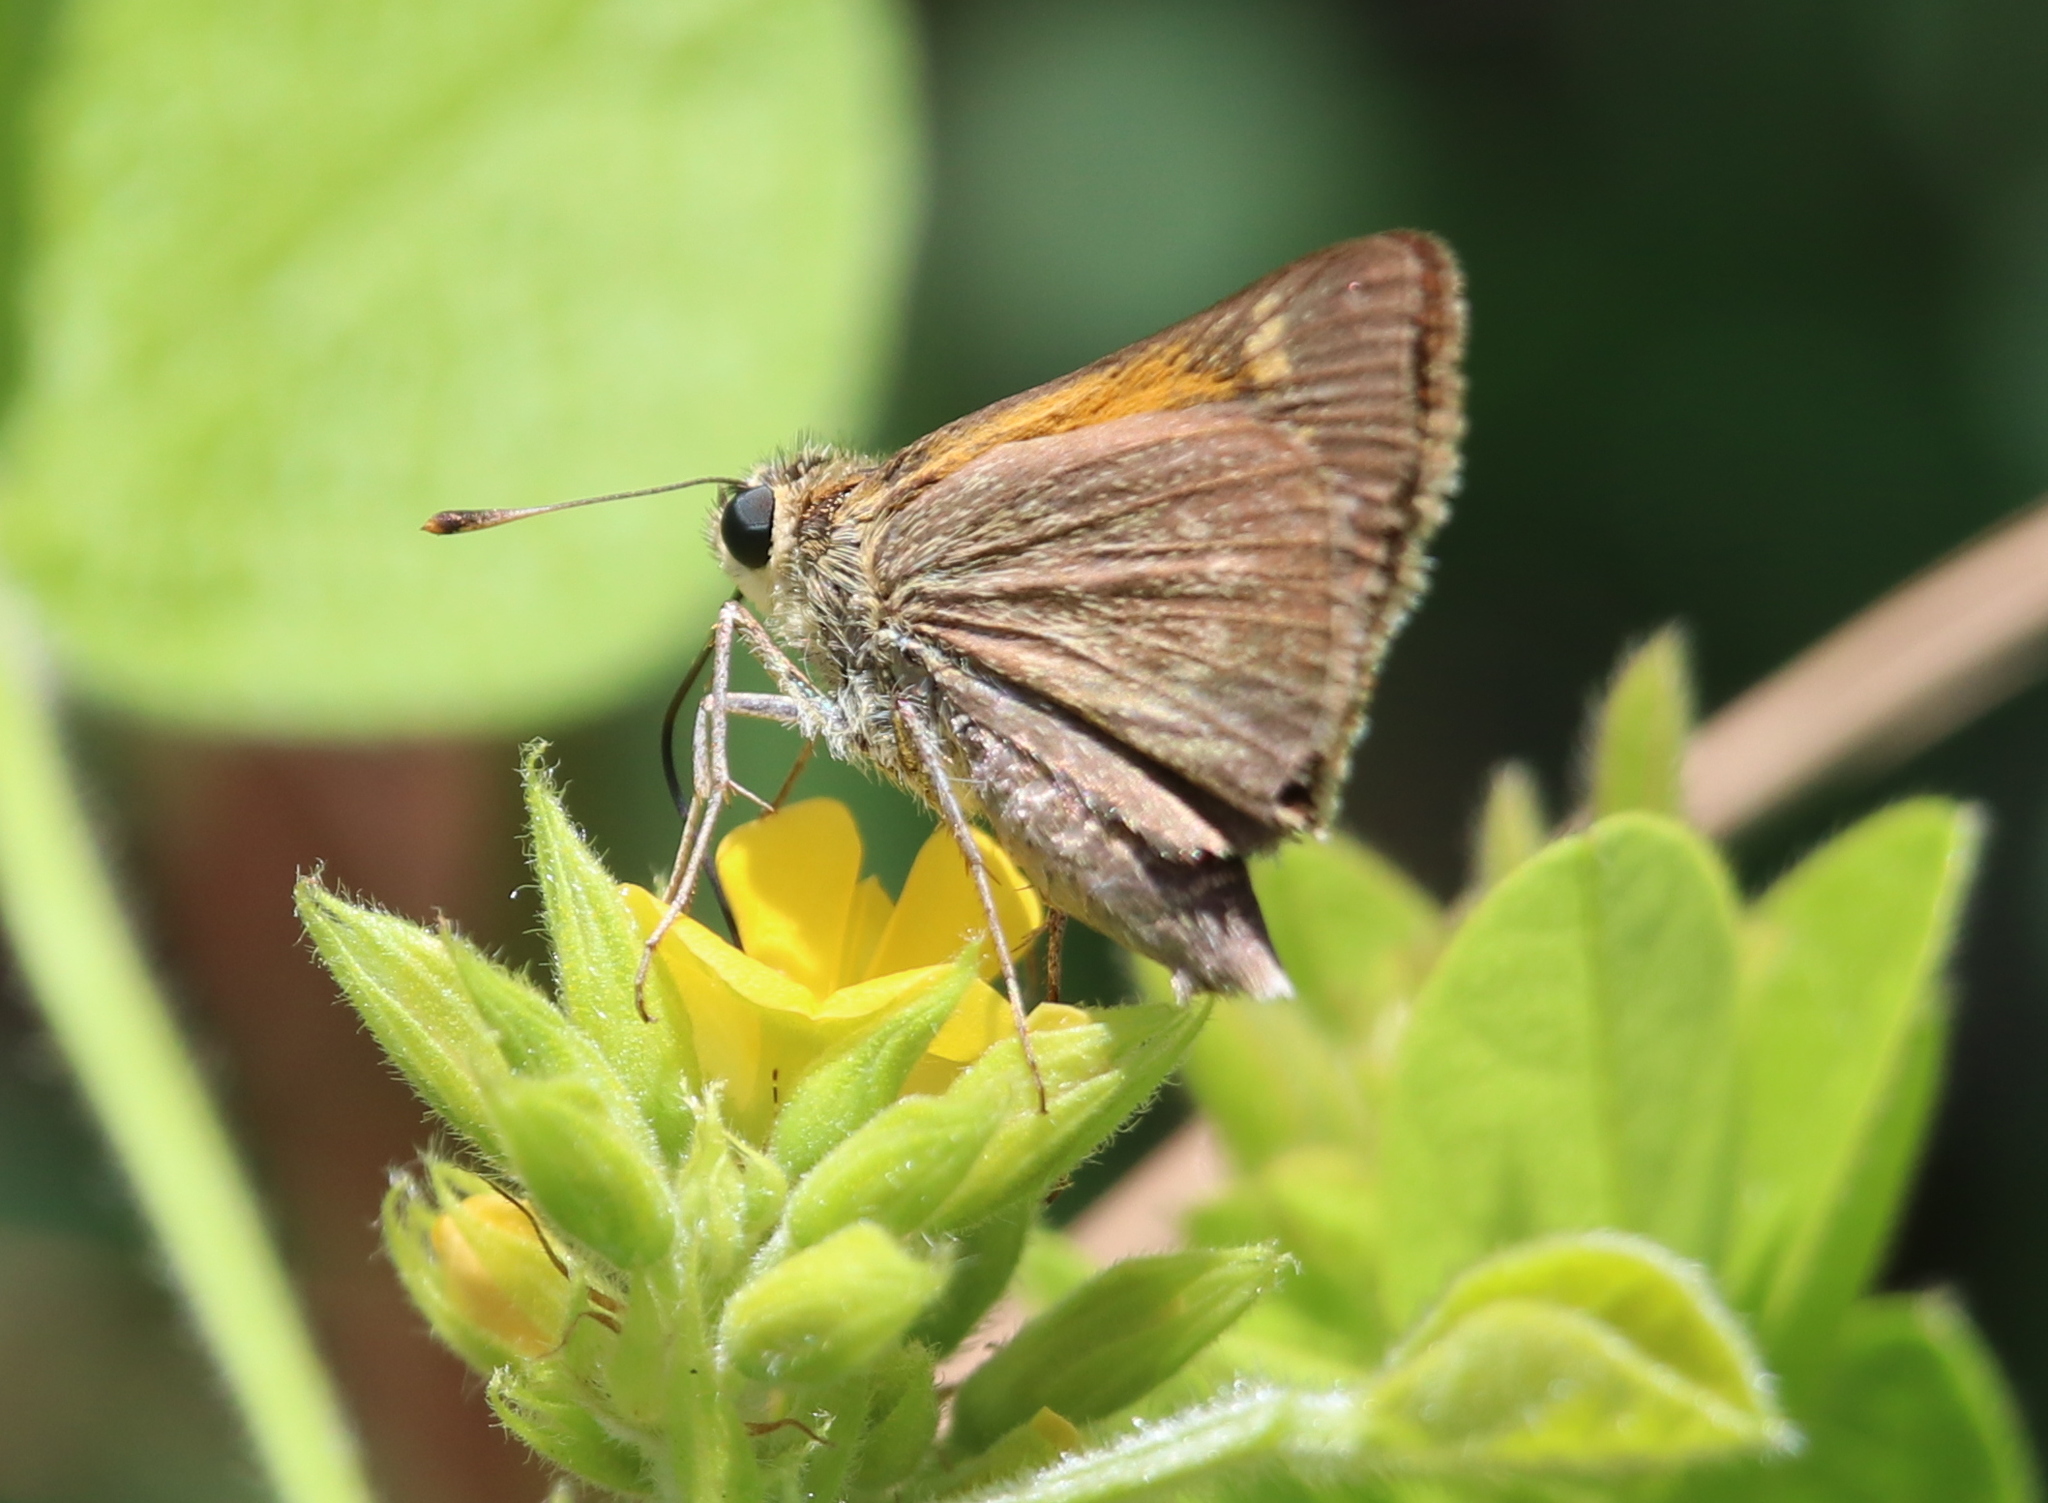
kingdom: Animalia
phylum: Arthropoda
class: Insecta
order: Lepidoptera
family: Hesperiidae
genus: Polites
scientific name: Polites themistocles
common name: Tawny-edged skipper
